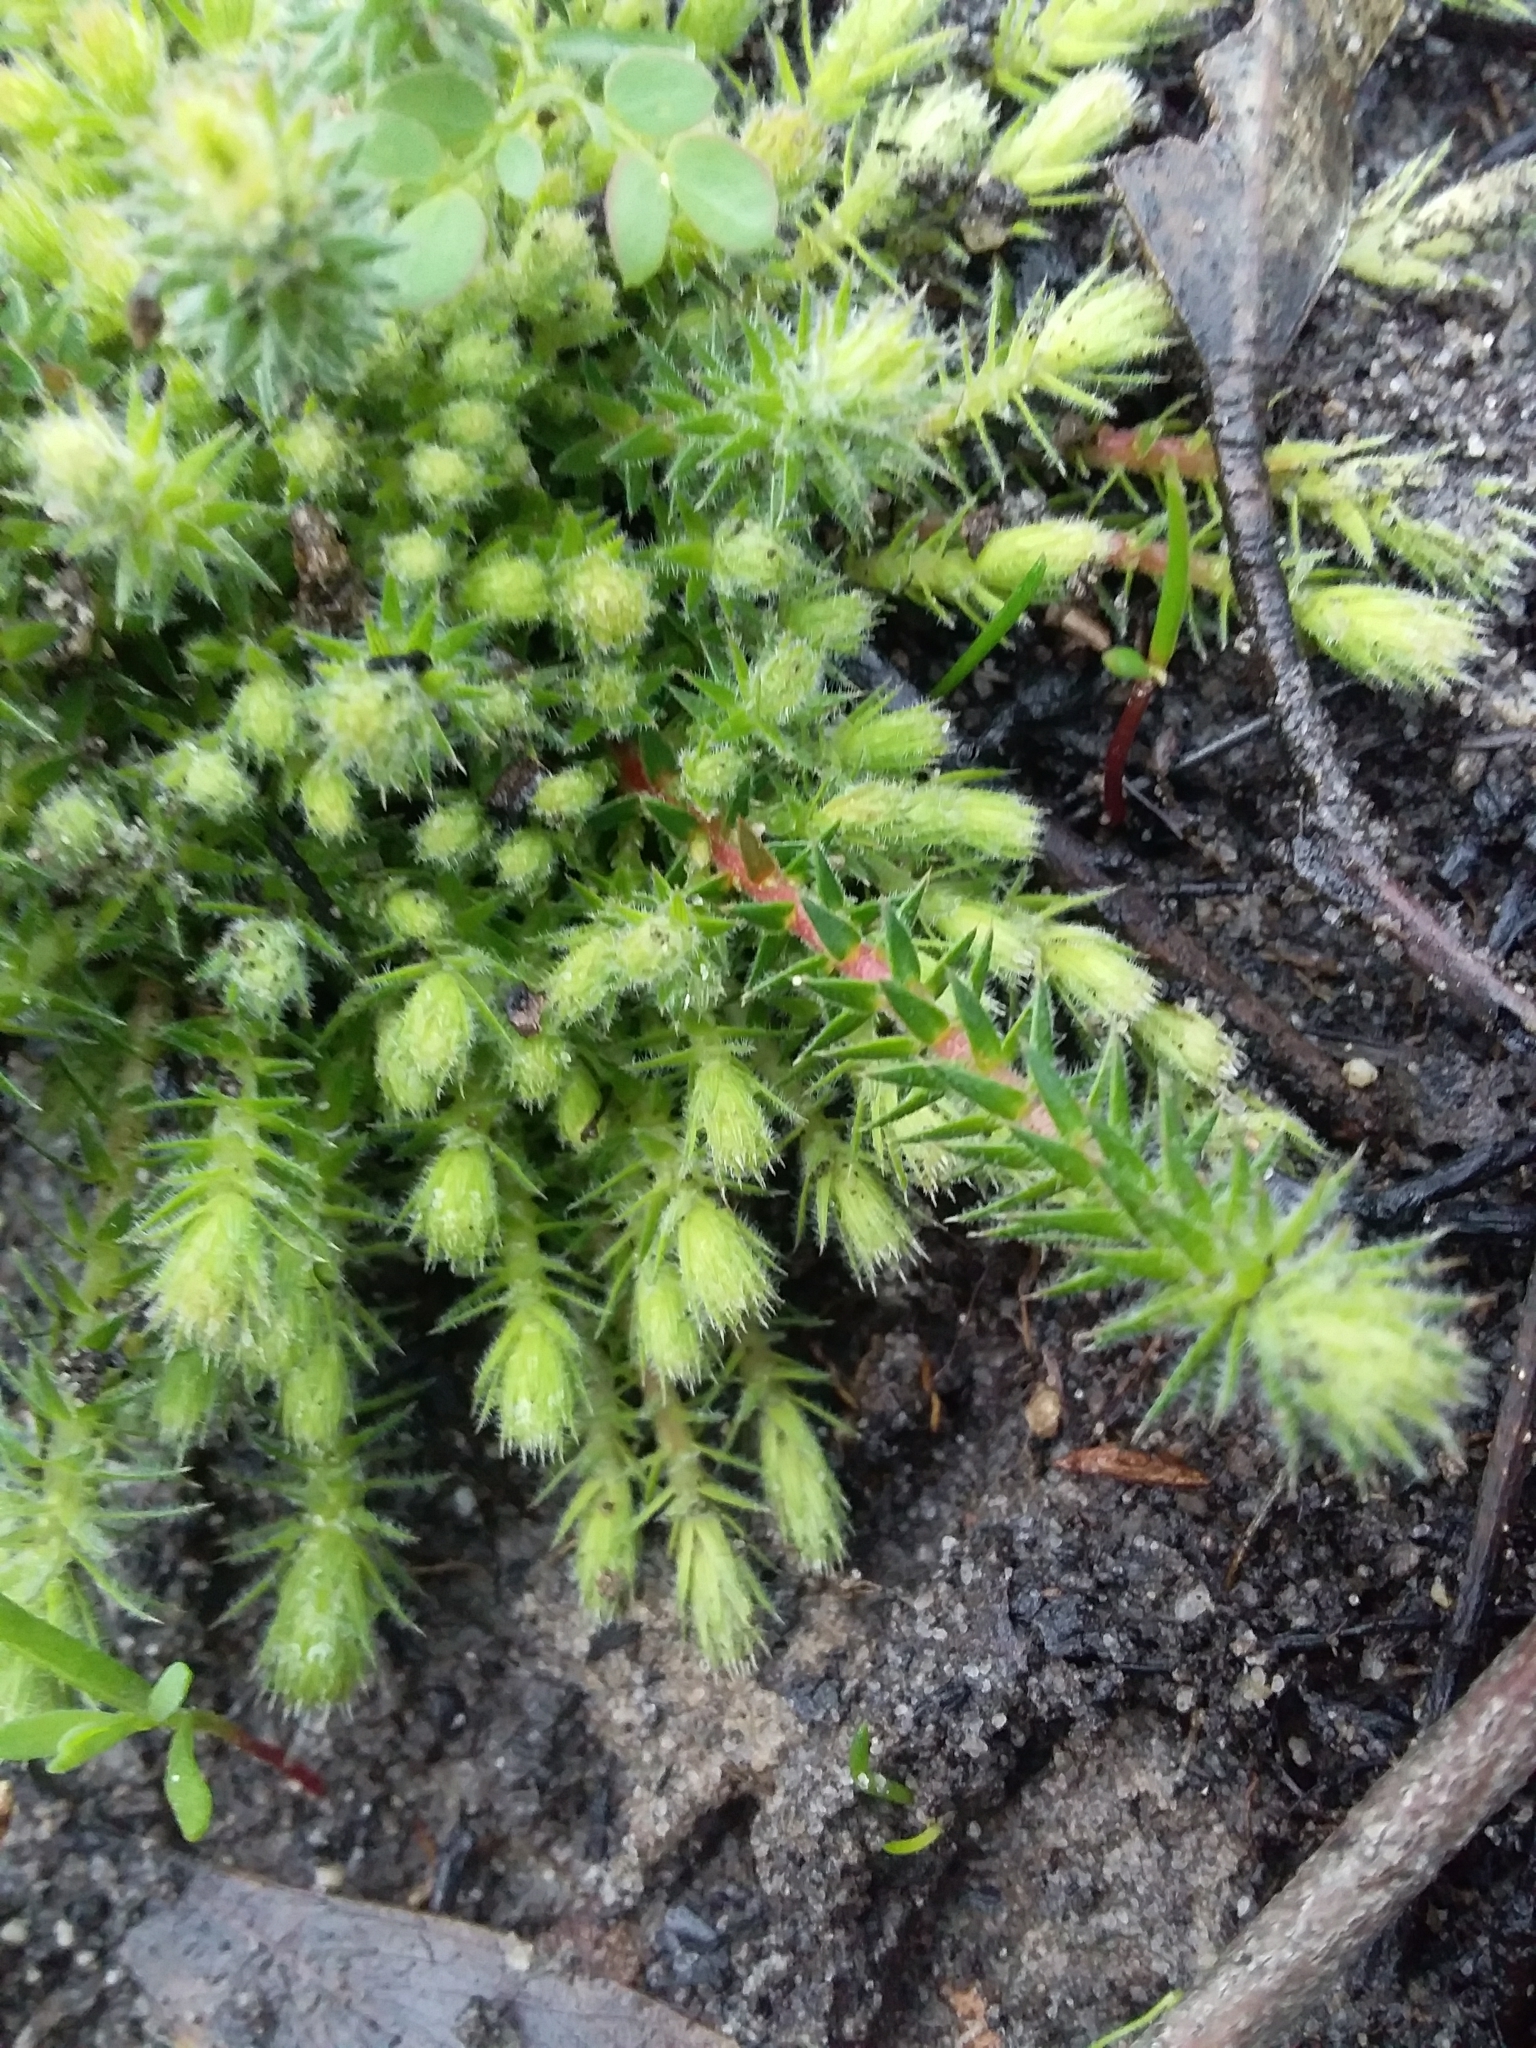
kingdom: Plantae
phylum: Tracheophyta
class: Magnoliopsida
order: Ericales
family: Ericaceae
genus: Acrotriche
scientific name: Acrotriche serrulata
